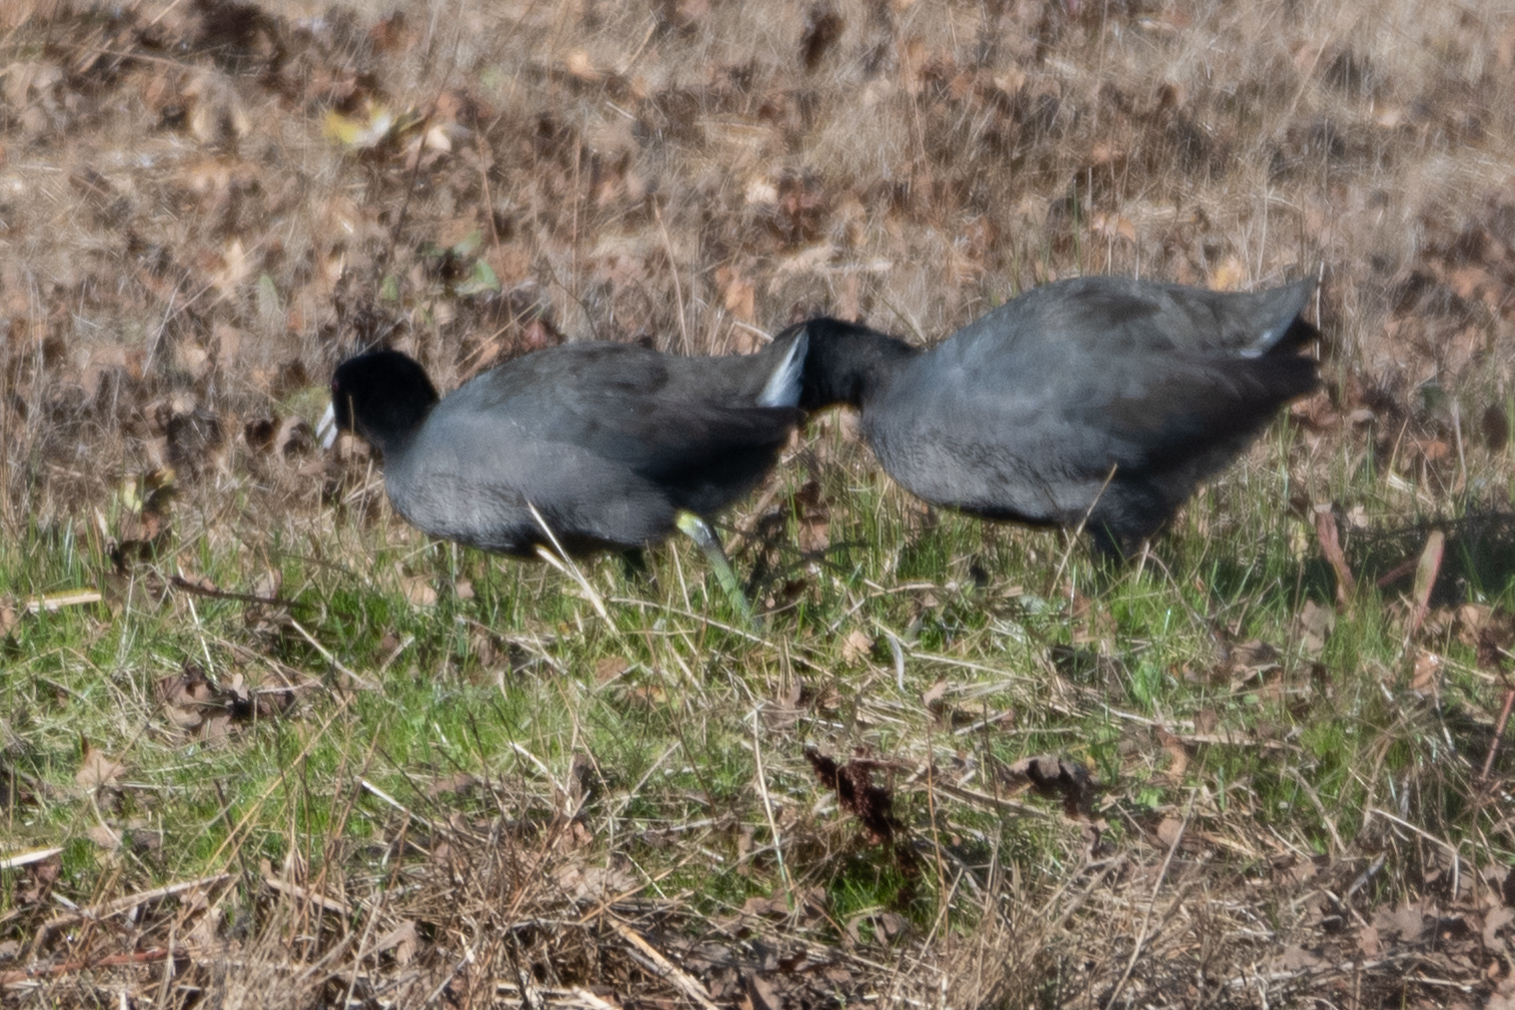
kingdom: Animalia
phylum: Chordata
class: Aves
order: Gruiformes
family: Rallidae
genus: Fulica
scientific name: Fulica americana
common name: American coot
